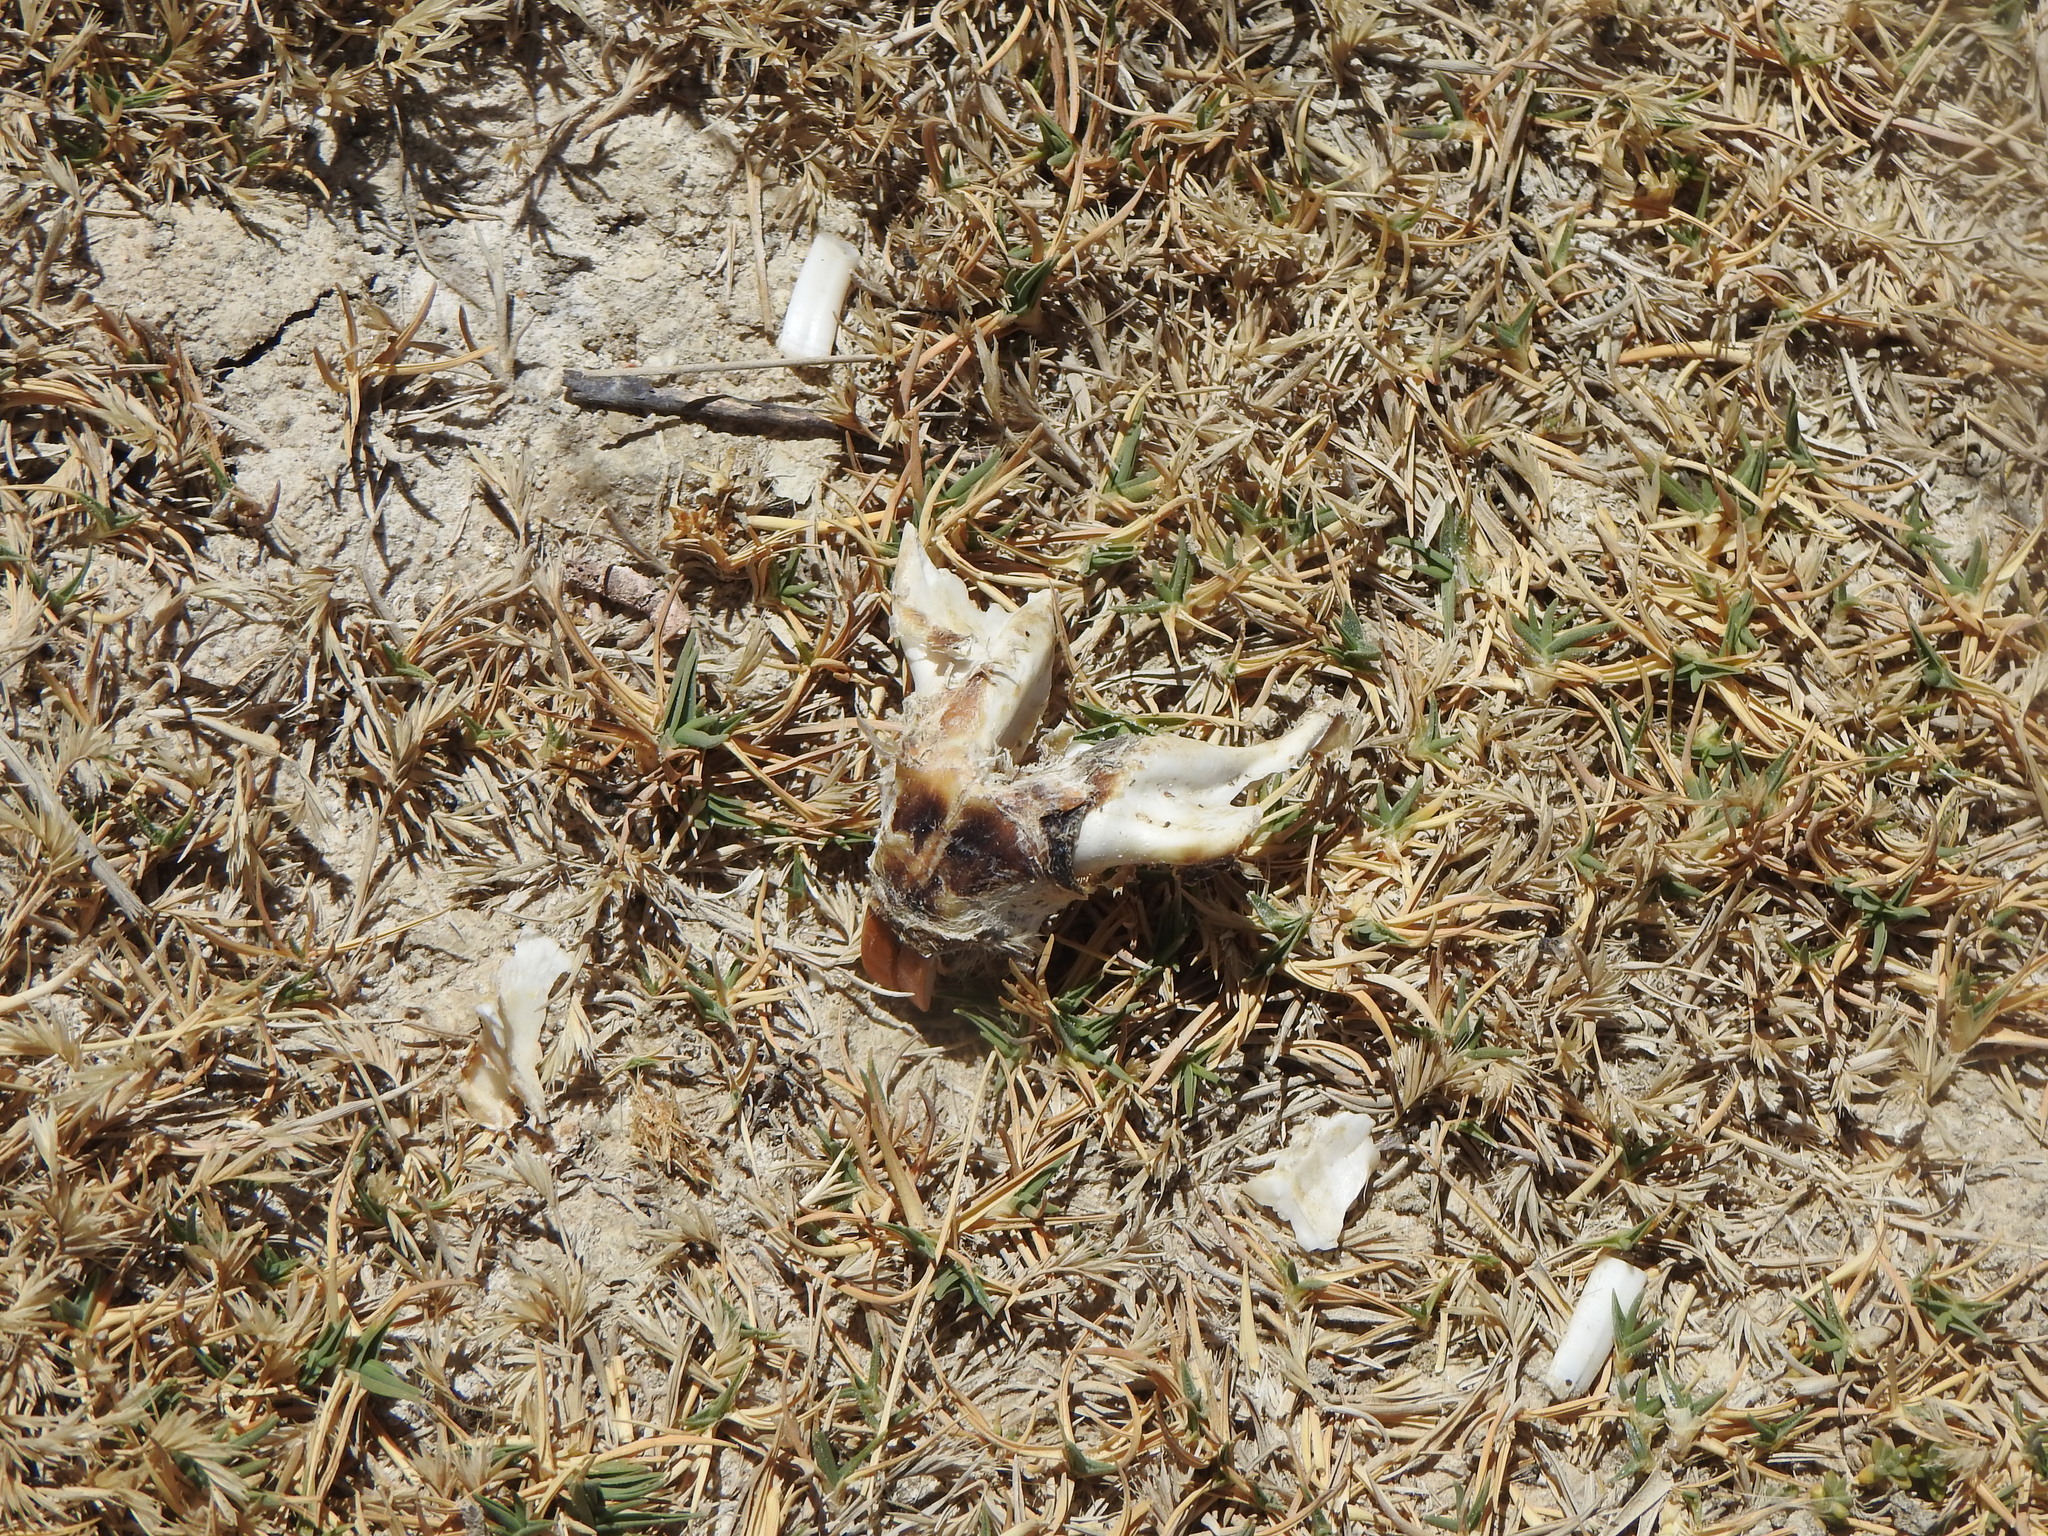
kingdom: Animalia
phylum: Chordata
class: Mammalia
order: Rodentia
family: Ctenomyidae
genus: Ctenomys
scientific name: Ctenomys opimus
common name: Highland tuco-tuco
